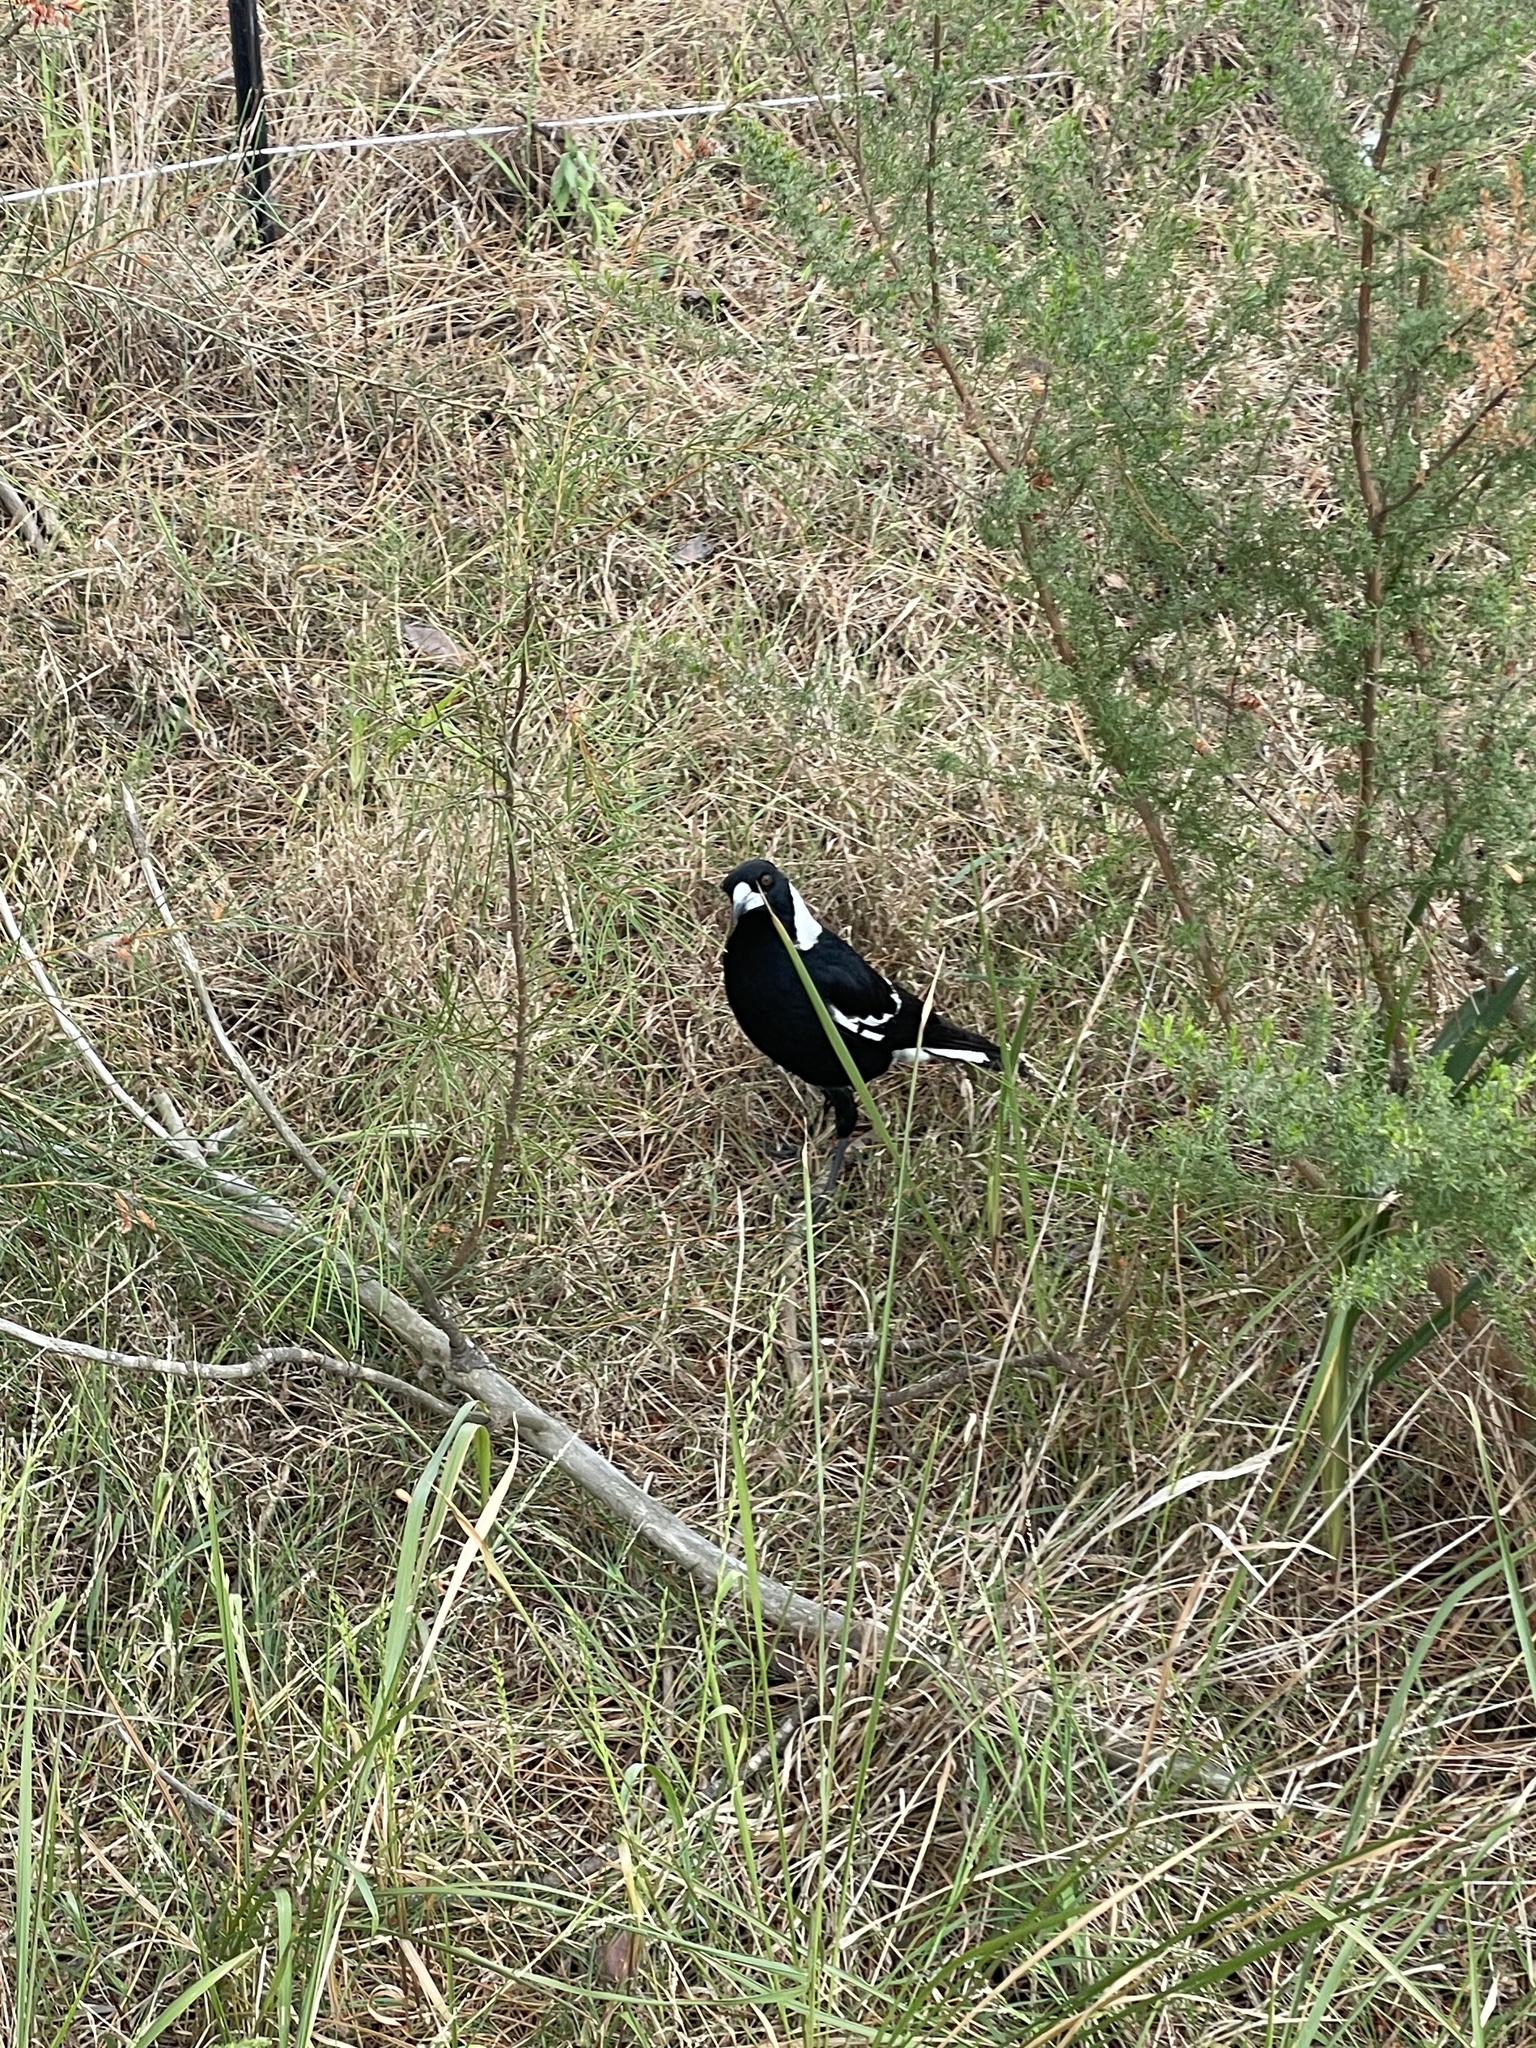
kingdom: Animalia
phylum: Chordata
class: Aves
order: Passeriformes
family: Cracticidae
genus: Gymnorhina
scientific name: Gymnorhina tibicen
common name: Australian magpie
